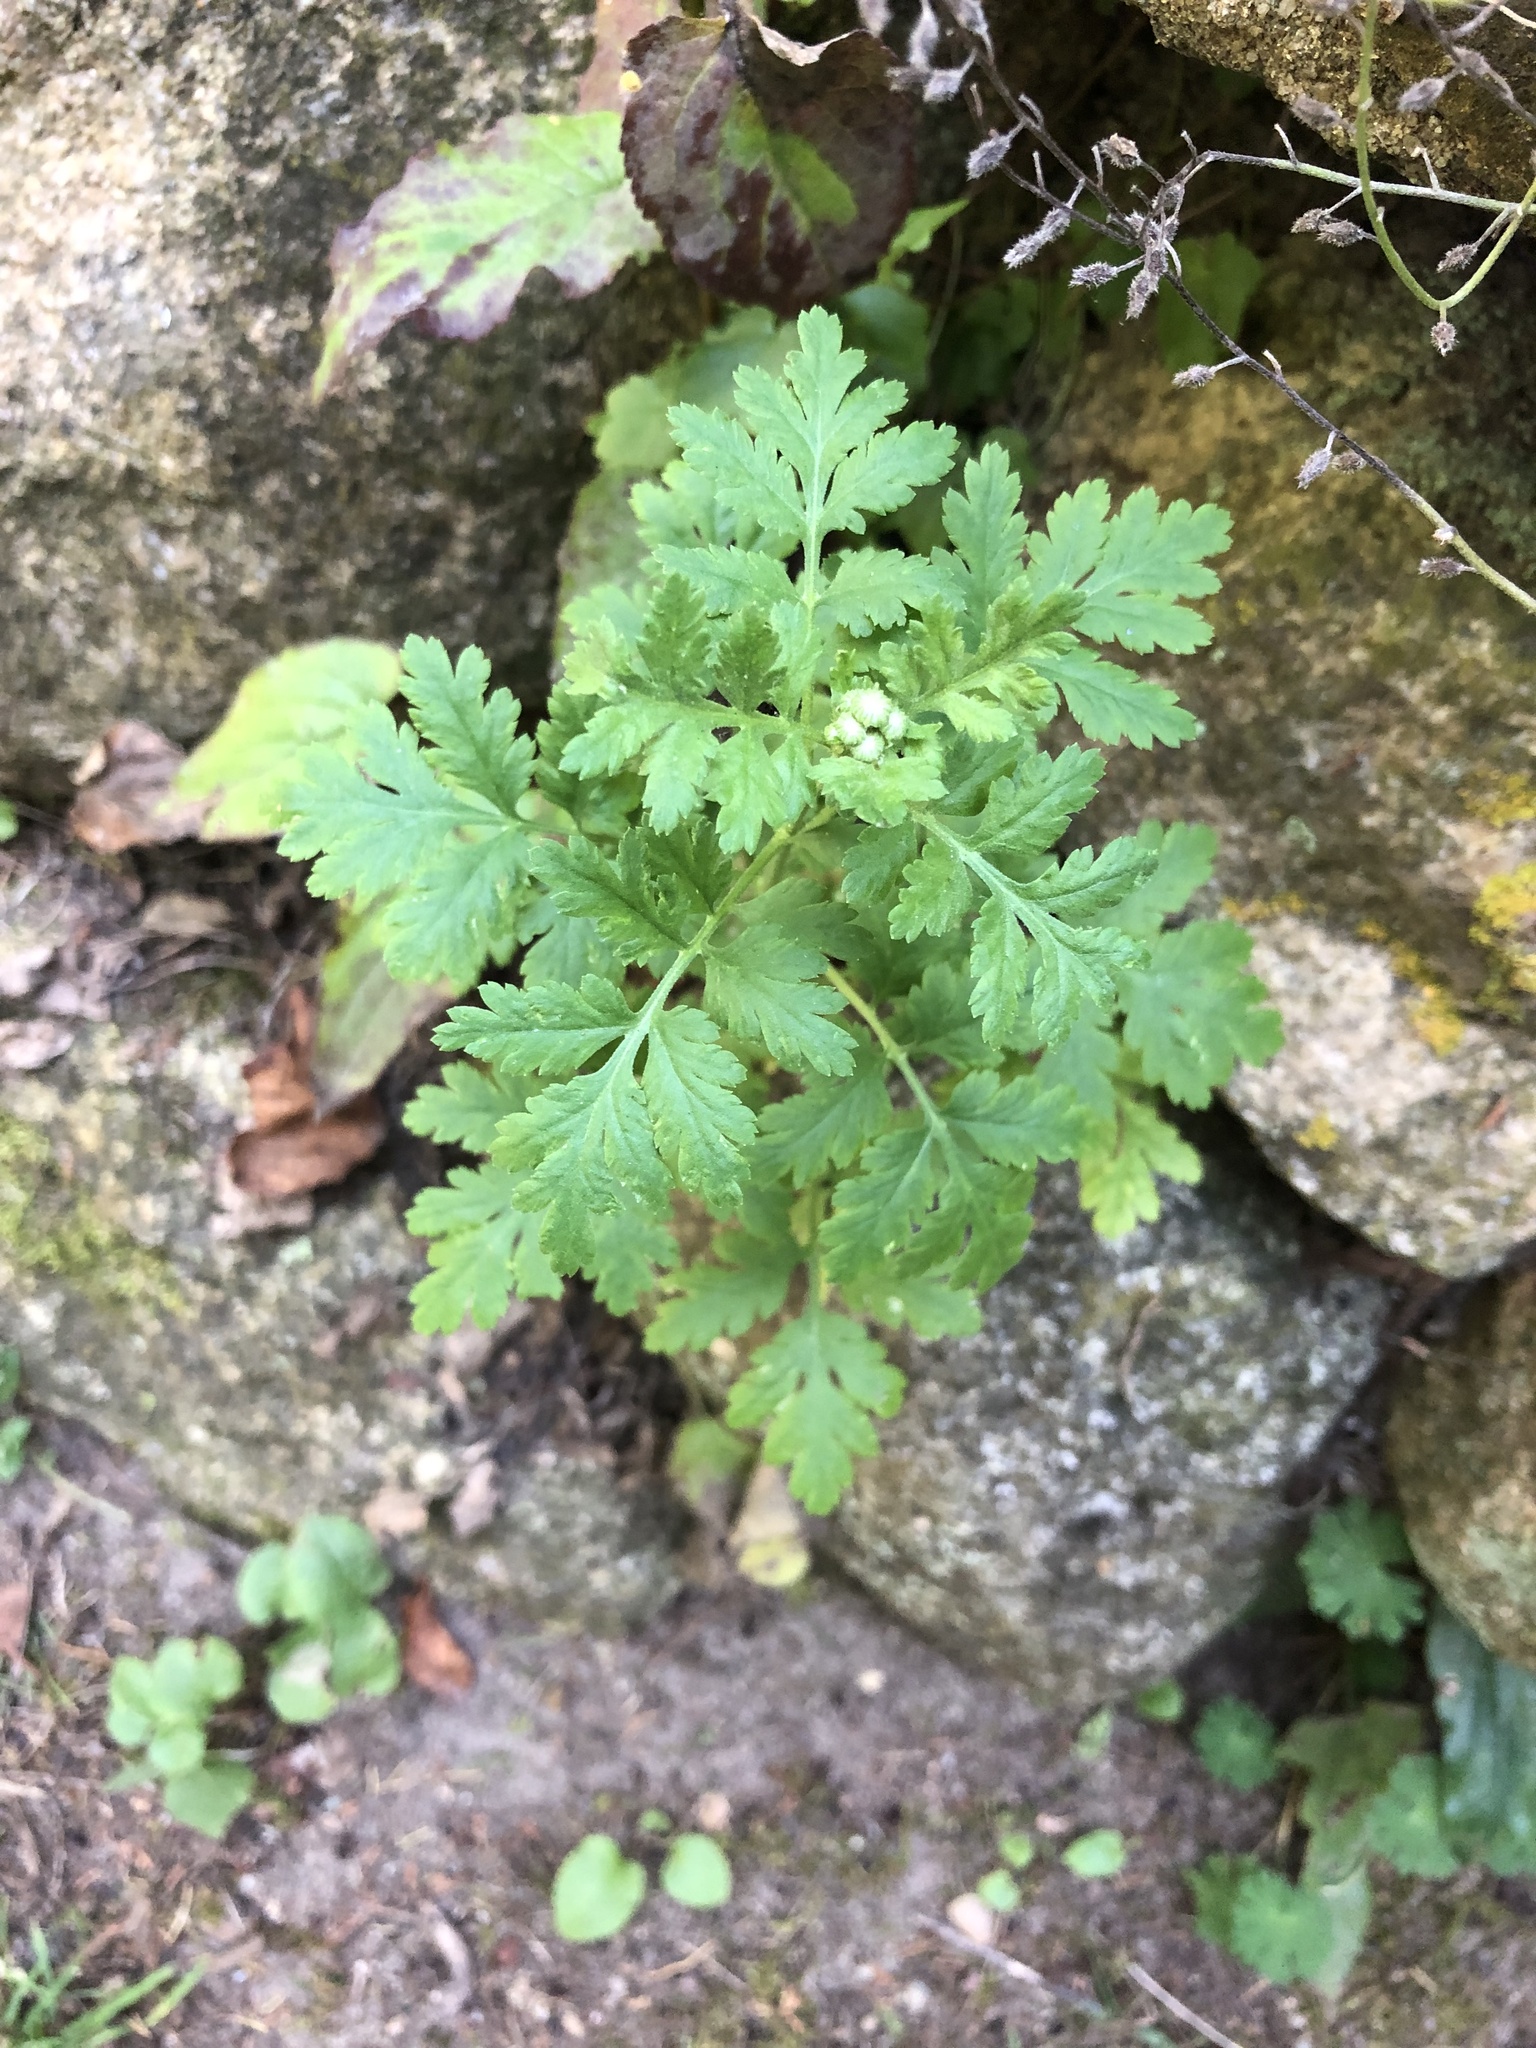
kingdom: Plantae
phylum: Tracheophyta
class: Magnoliopsida
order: Asterales
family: Asteraceae
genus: Tanacetum
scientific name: Tanacetum parthenium
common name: Feverfew
